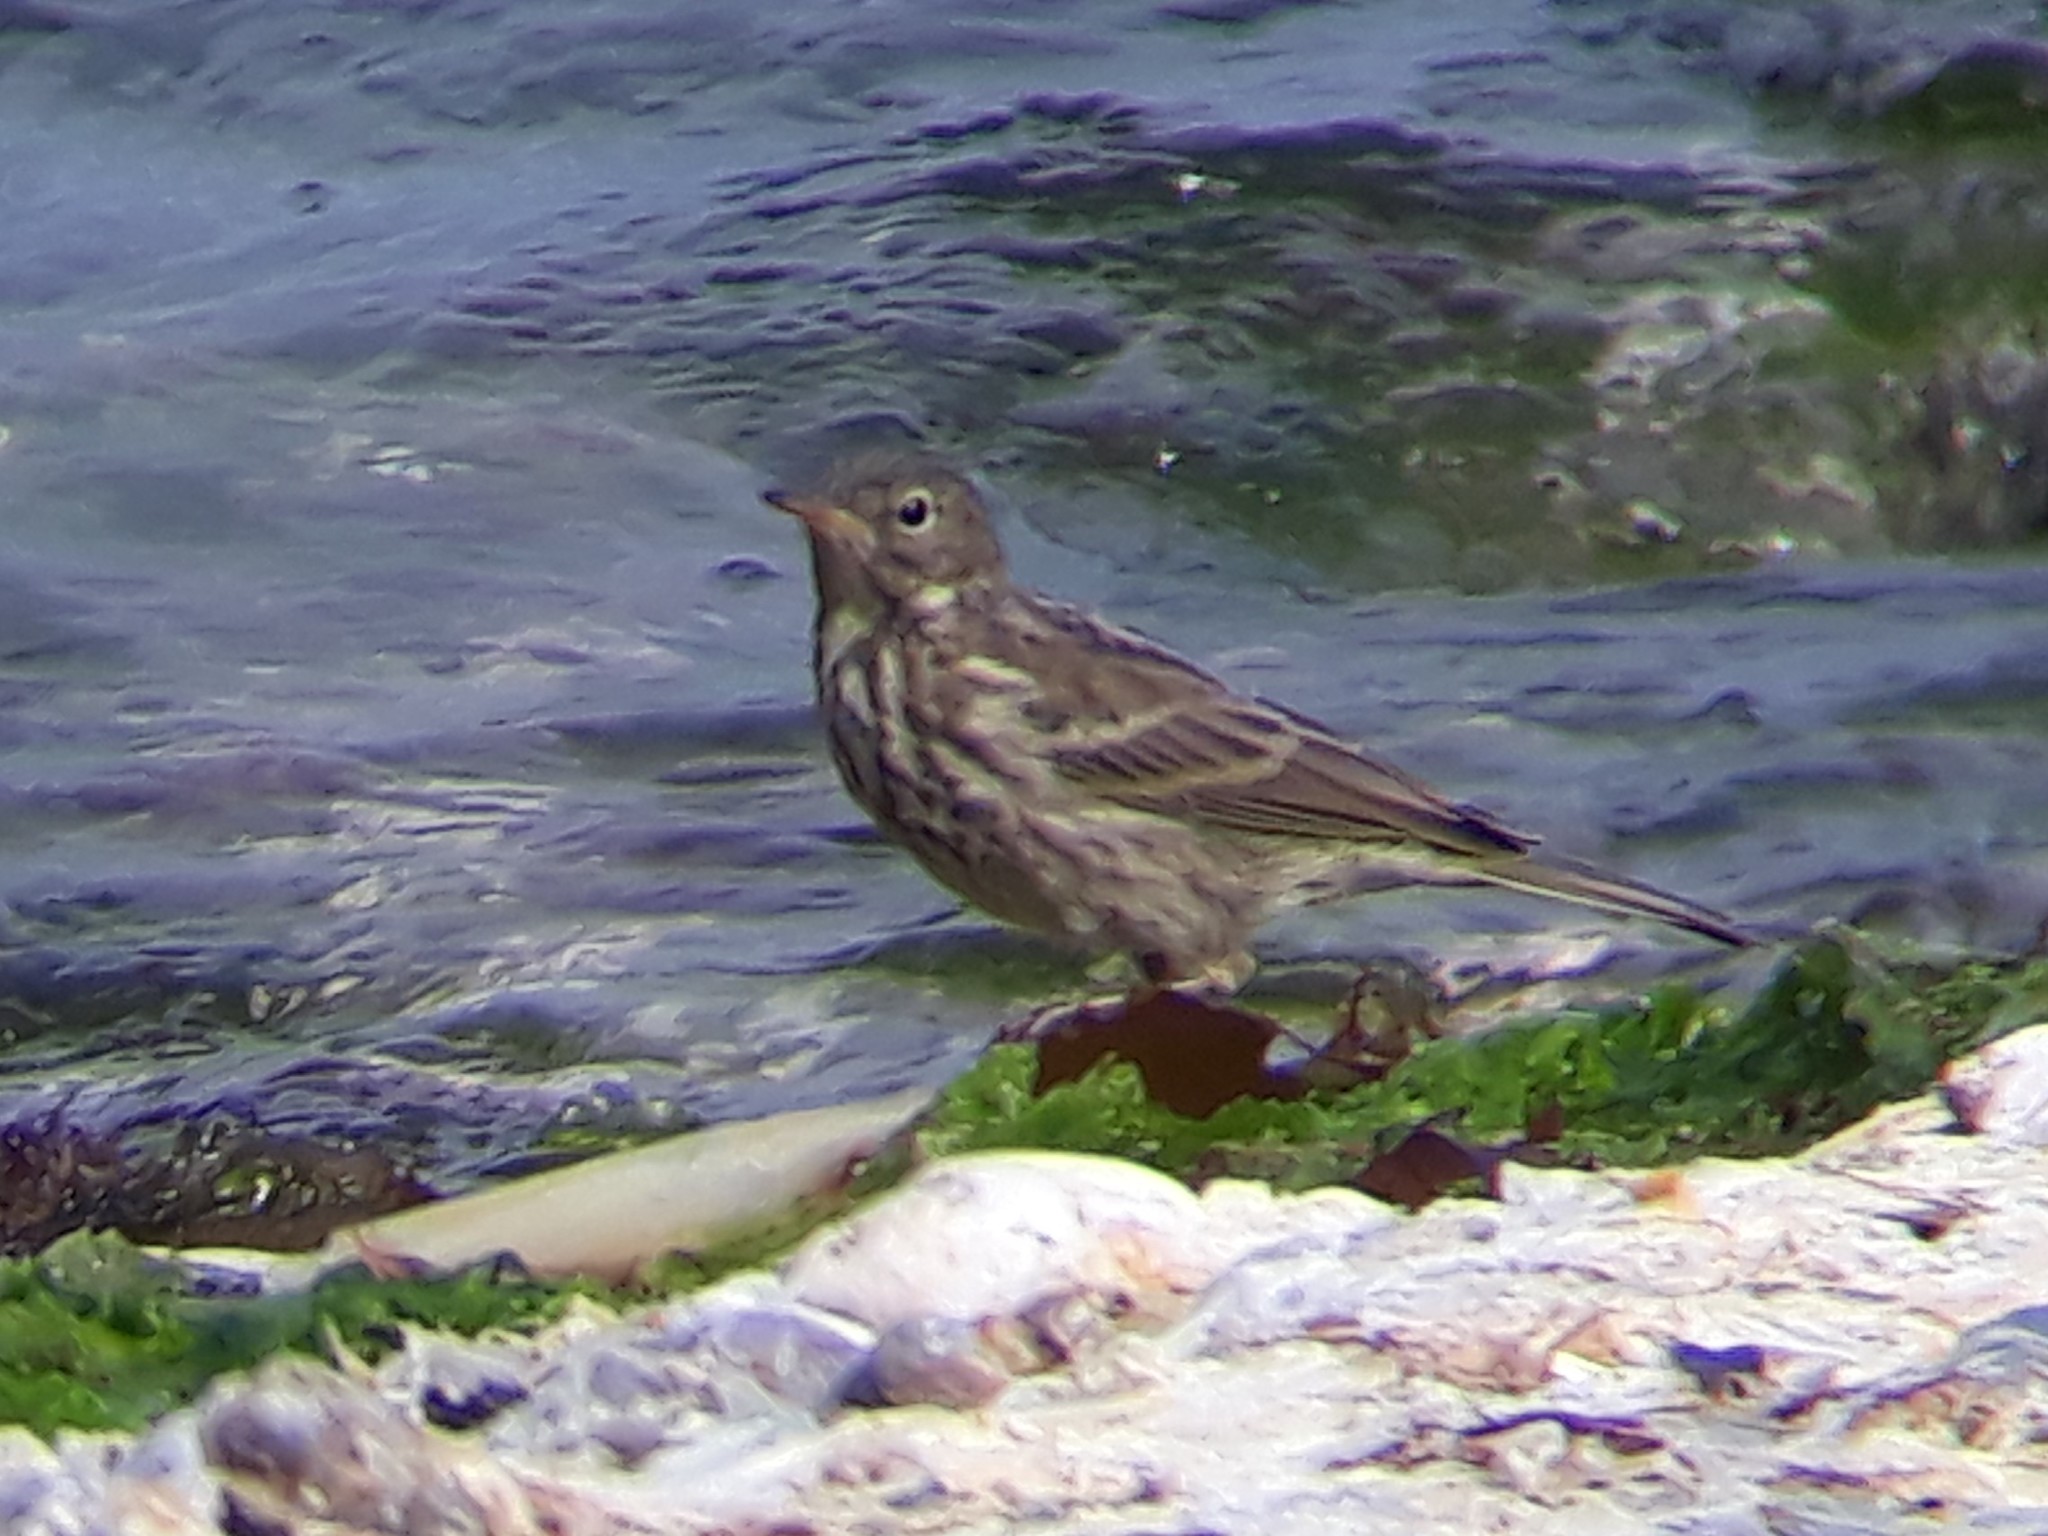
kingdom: Animalia
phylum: Chordata
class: Aves
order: Passeriformes
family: Motacillidae
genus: Anthus
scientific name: Anthus petrosus
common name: Eurasian rock pipit
